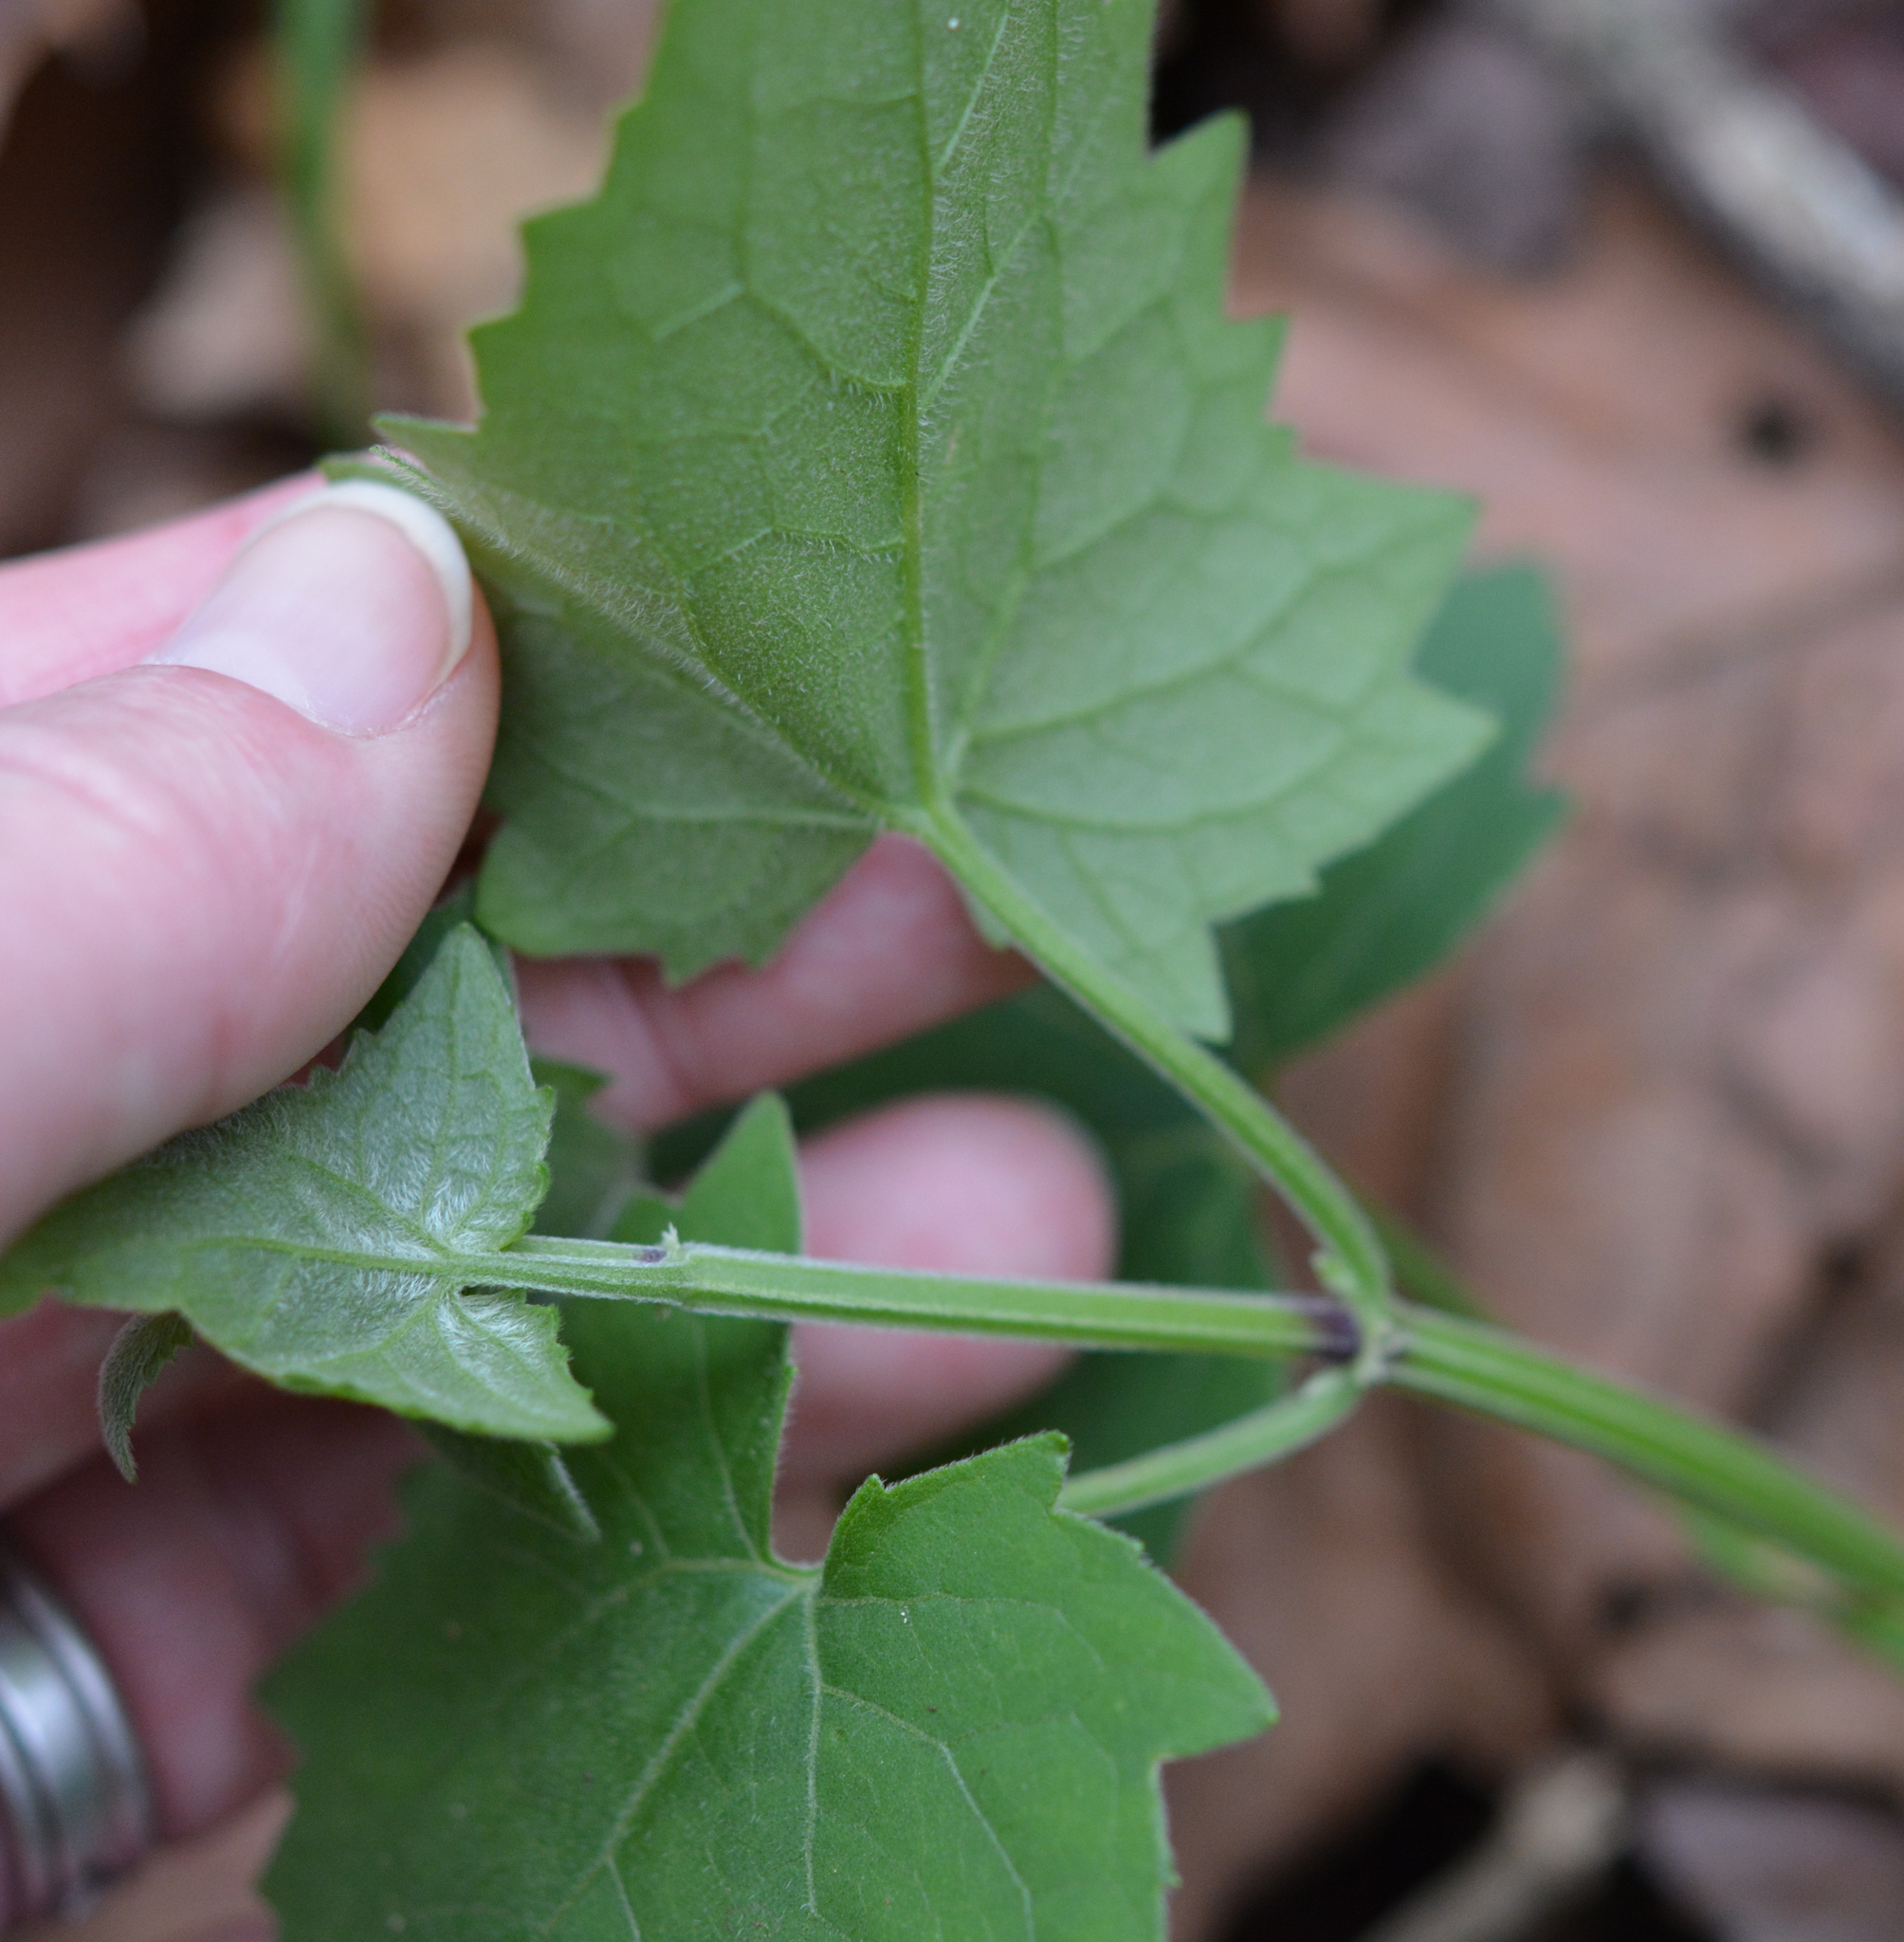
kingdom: Plantae
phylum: Tracheophyta
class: Magnoliopsida
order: Asterales
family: Asteraceae
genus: Mikania
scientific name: Mikania cordifolia
